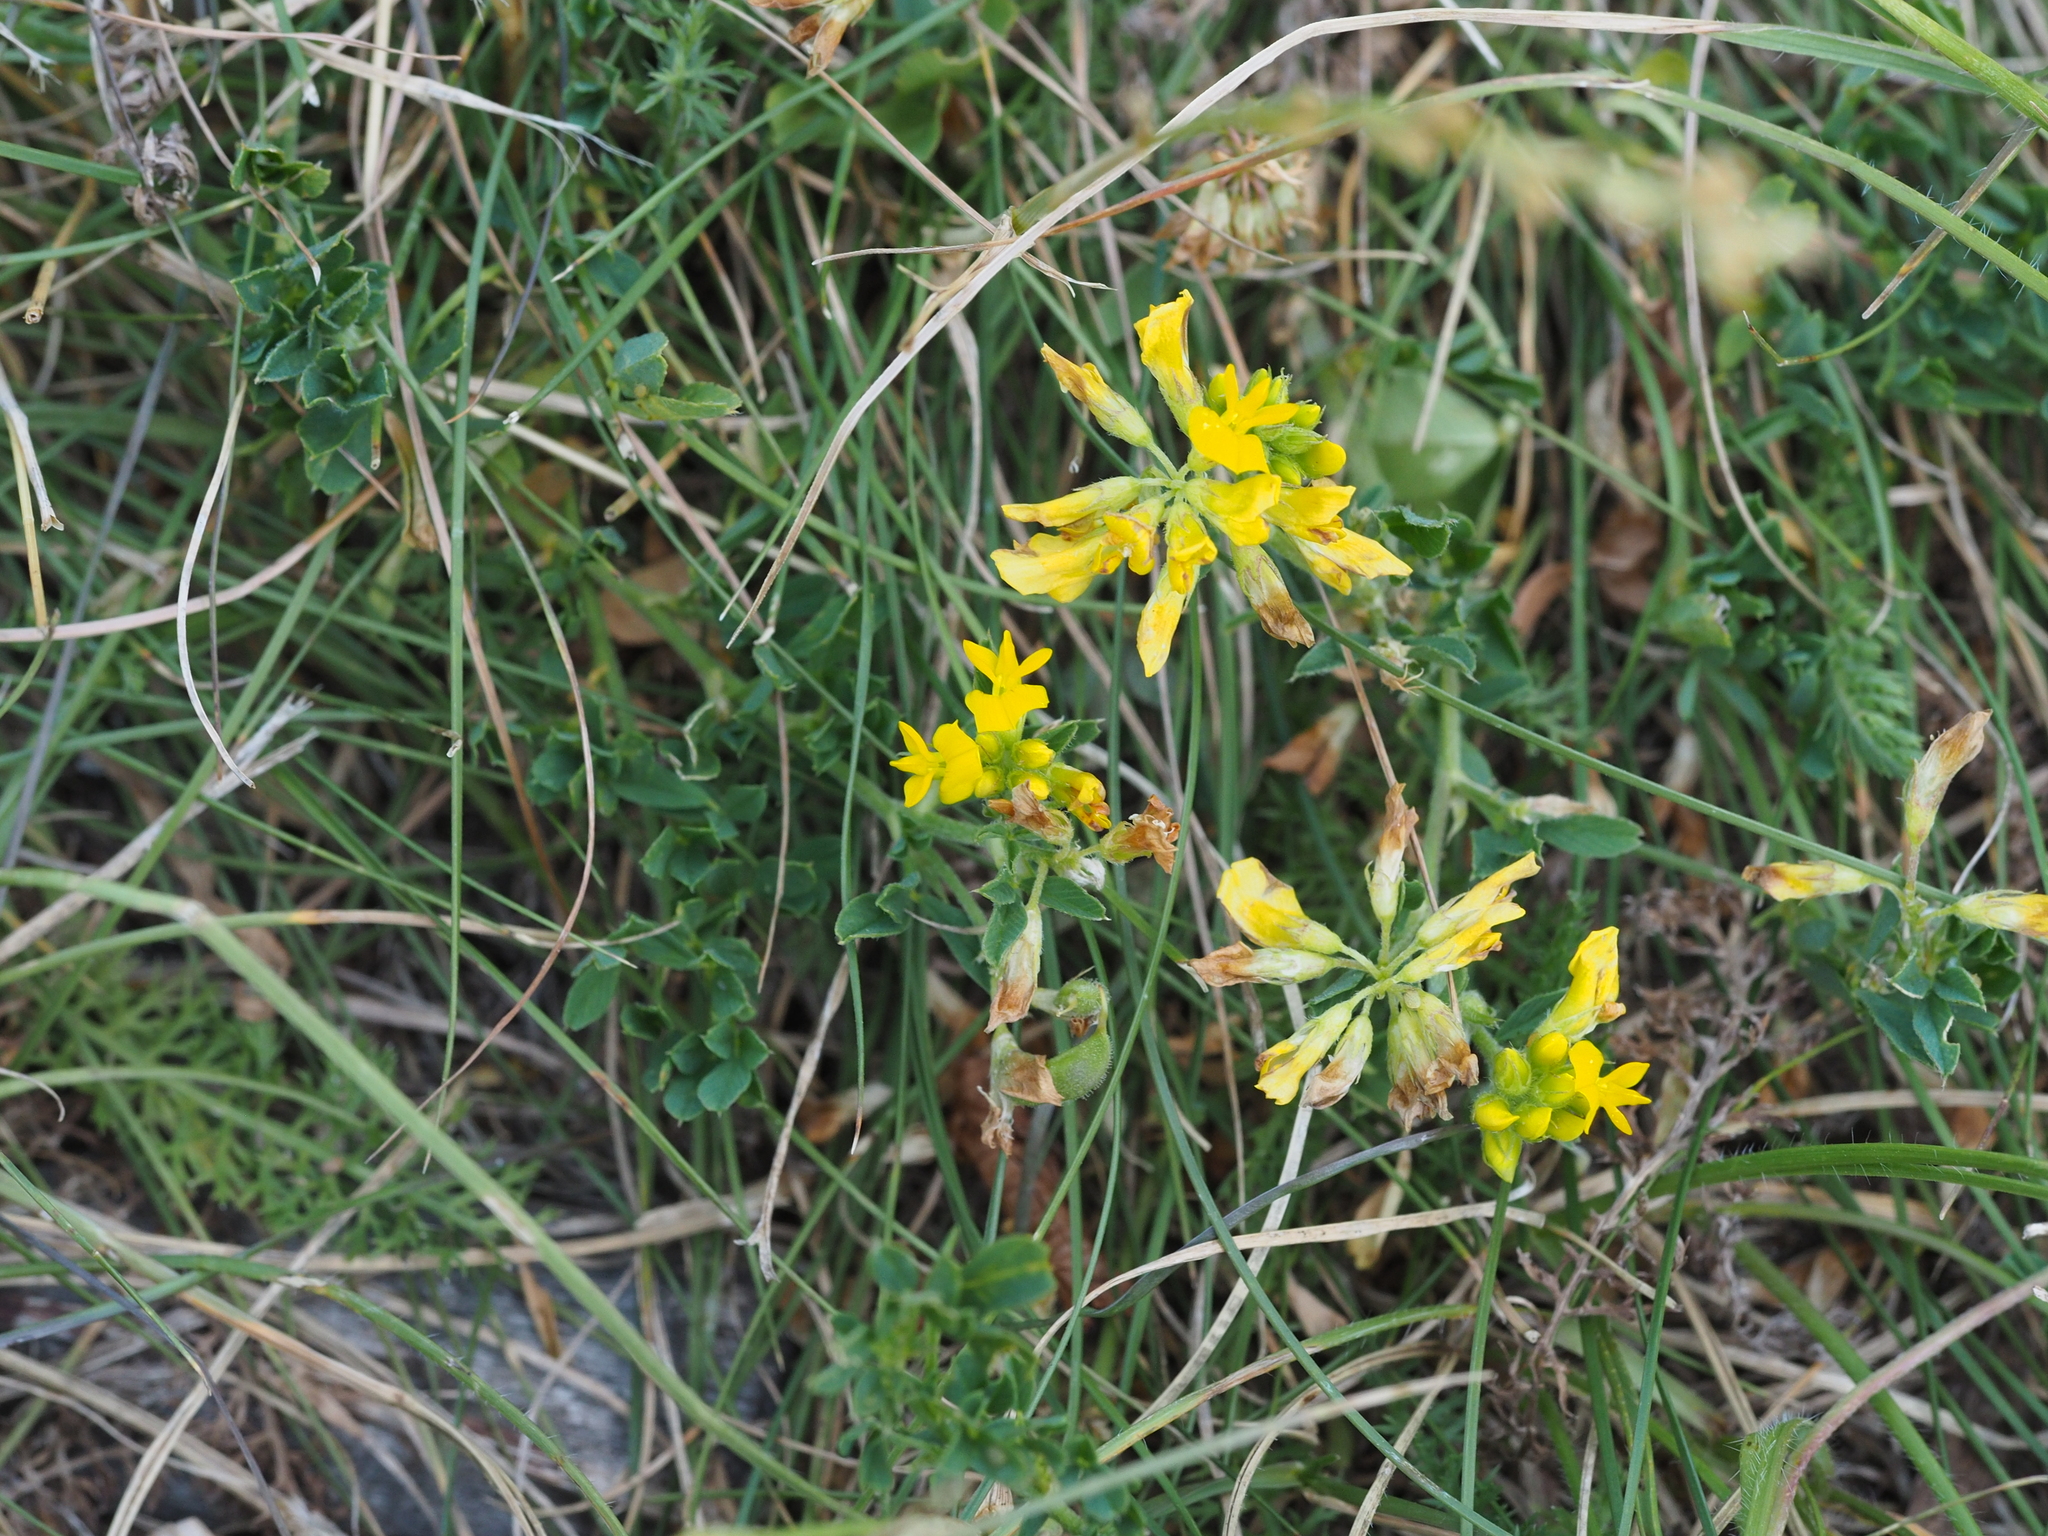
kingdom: Plantae
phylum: Tracheophyta
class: Magnoliopsida
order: Fabales
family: Fabaceae
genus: Medicago
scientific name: Medicago falcata
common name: Sickle medick
